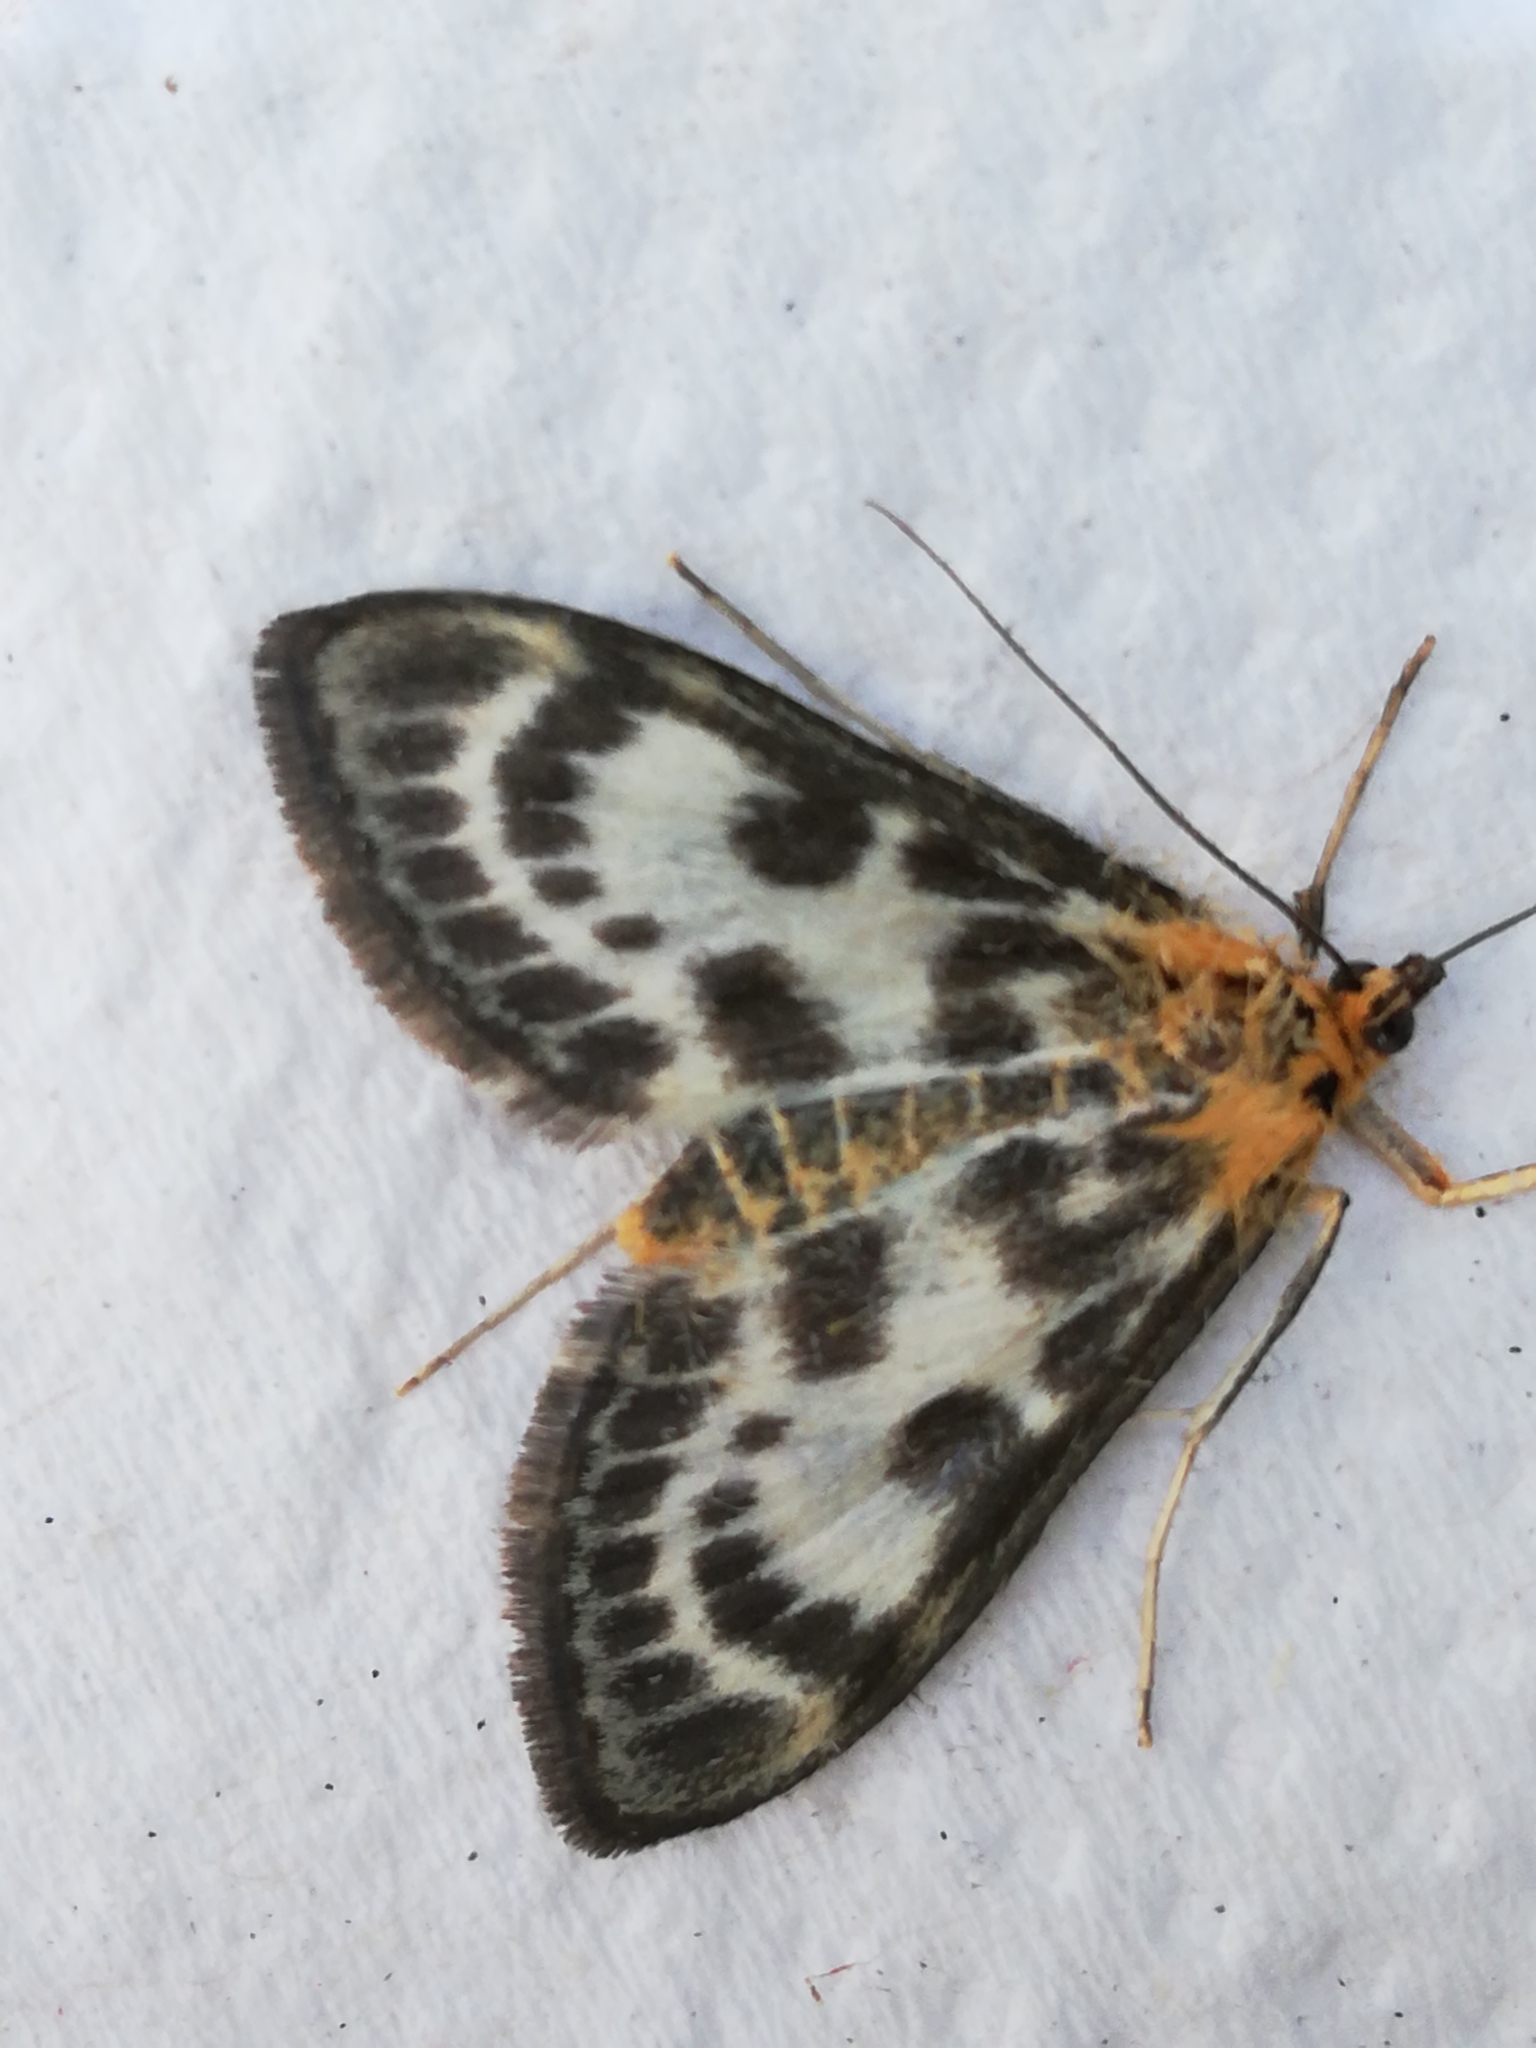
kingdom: Animalia
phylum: Arthropoda
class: Insecta
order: Lepidoptera
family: Crambidae
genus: Anania
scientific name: Anania hortulata
